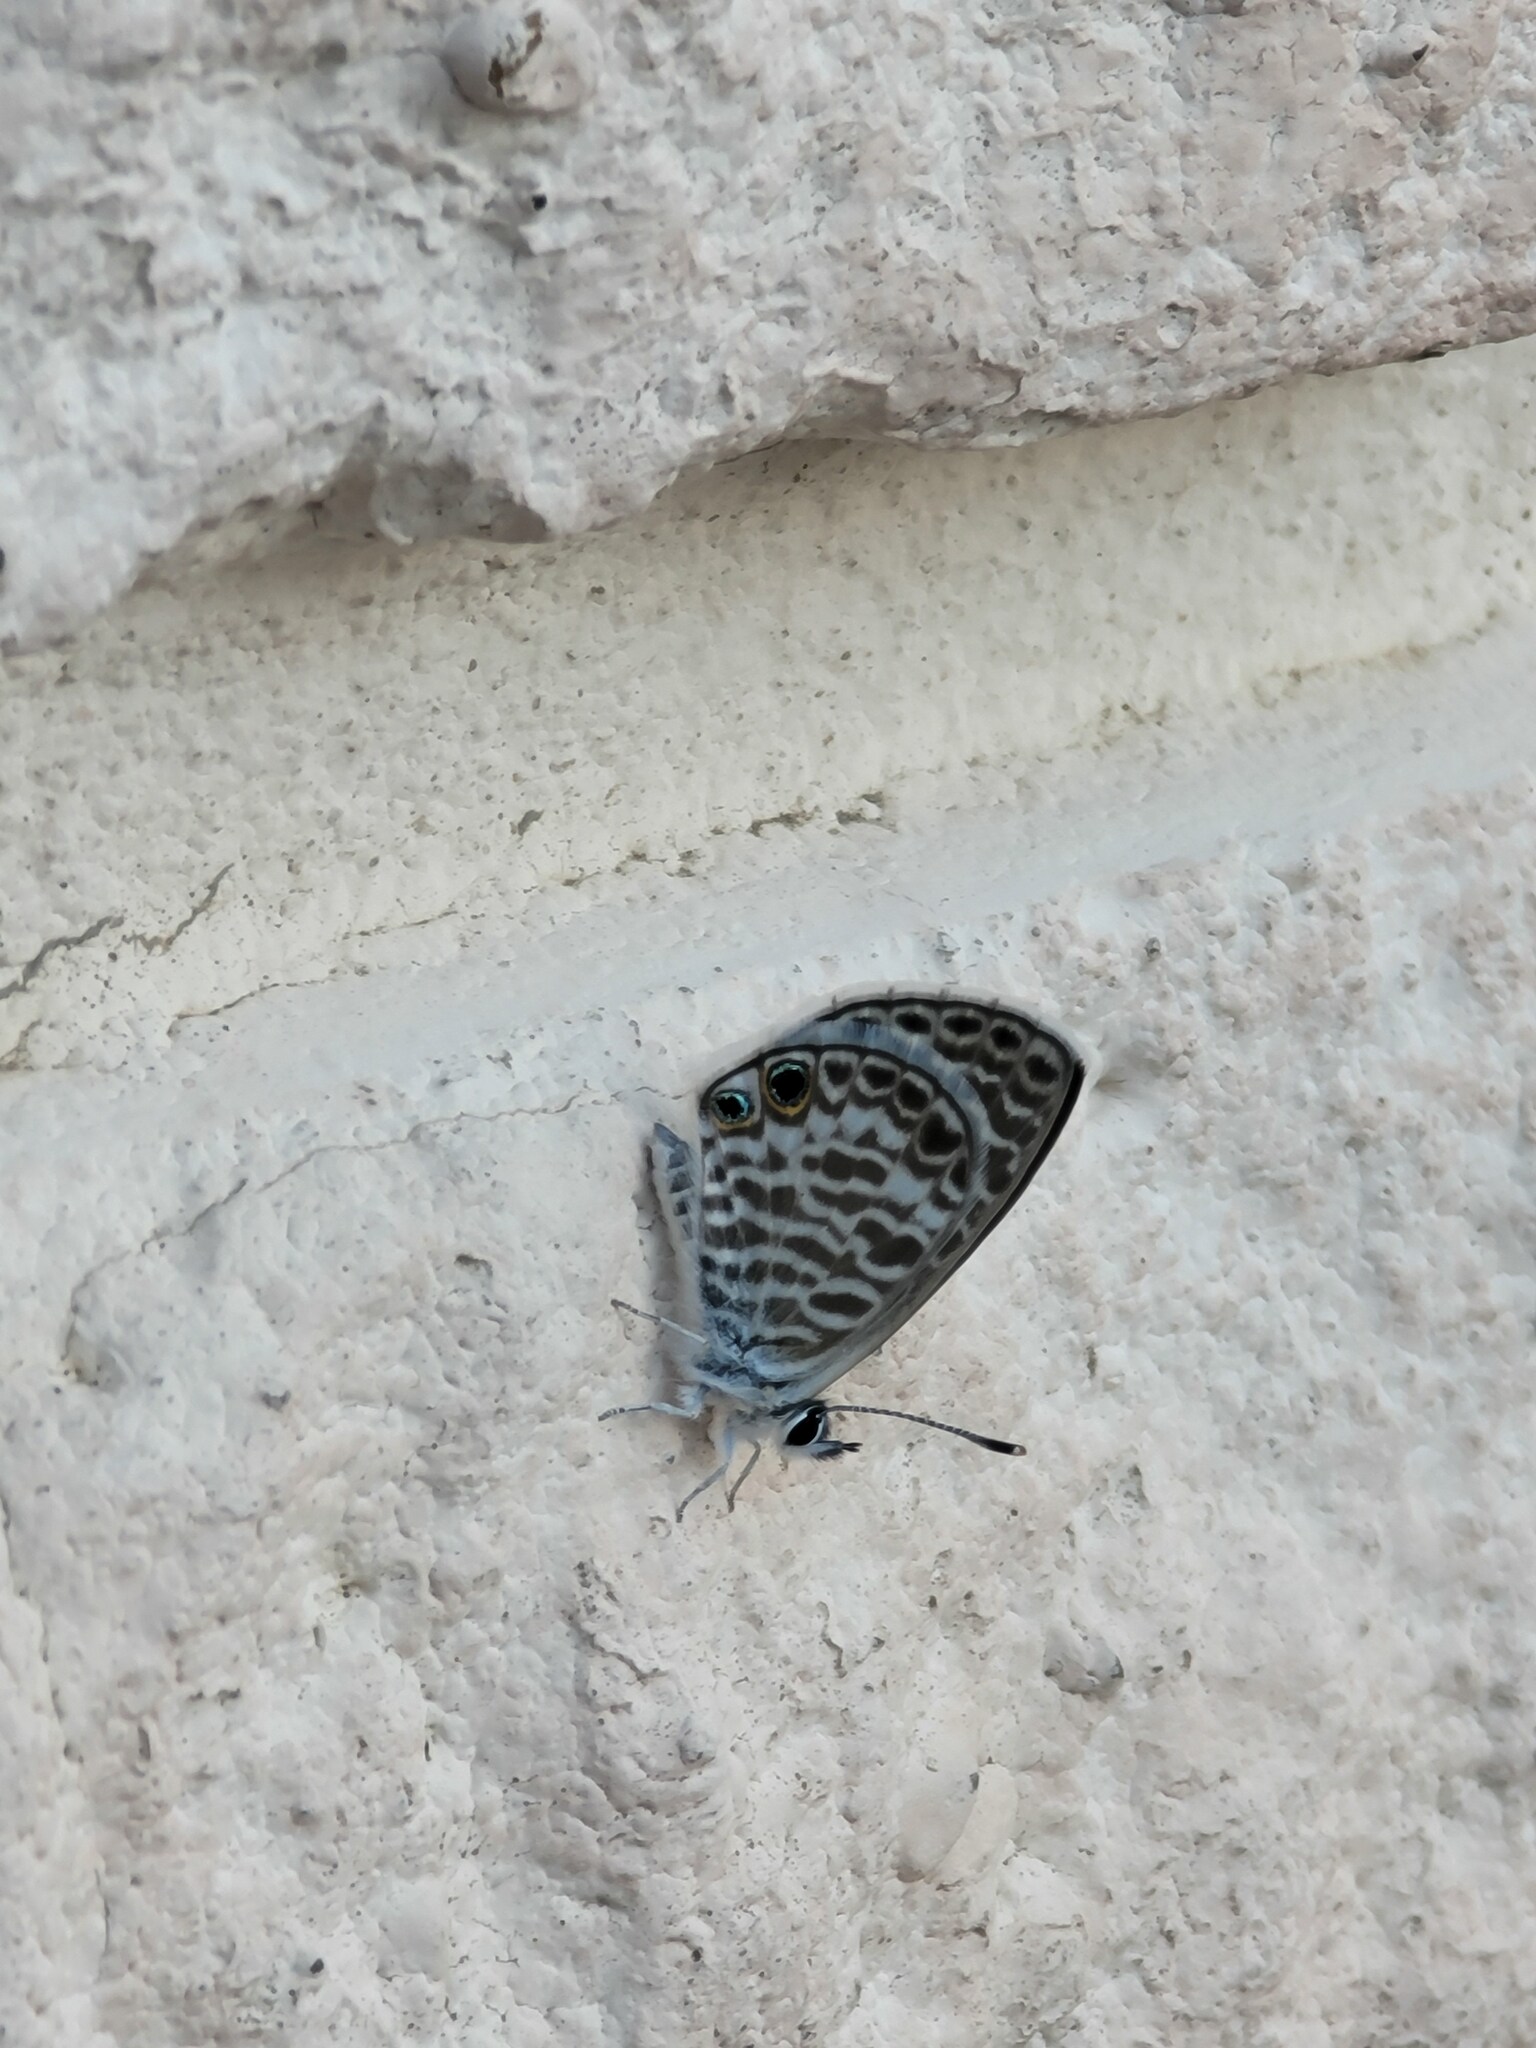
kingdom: Animalia
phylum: Arthropoda
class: Insecta
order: Lepidoptera
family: Lycaenidae
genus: Leptotes
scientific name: Leptotes marina
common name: Marine blue
